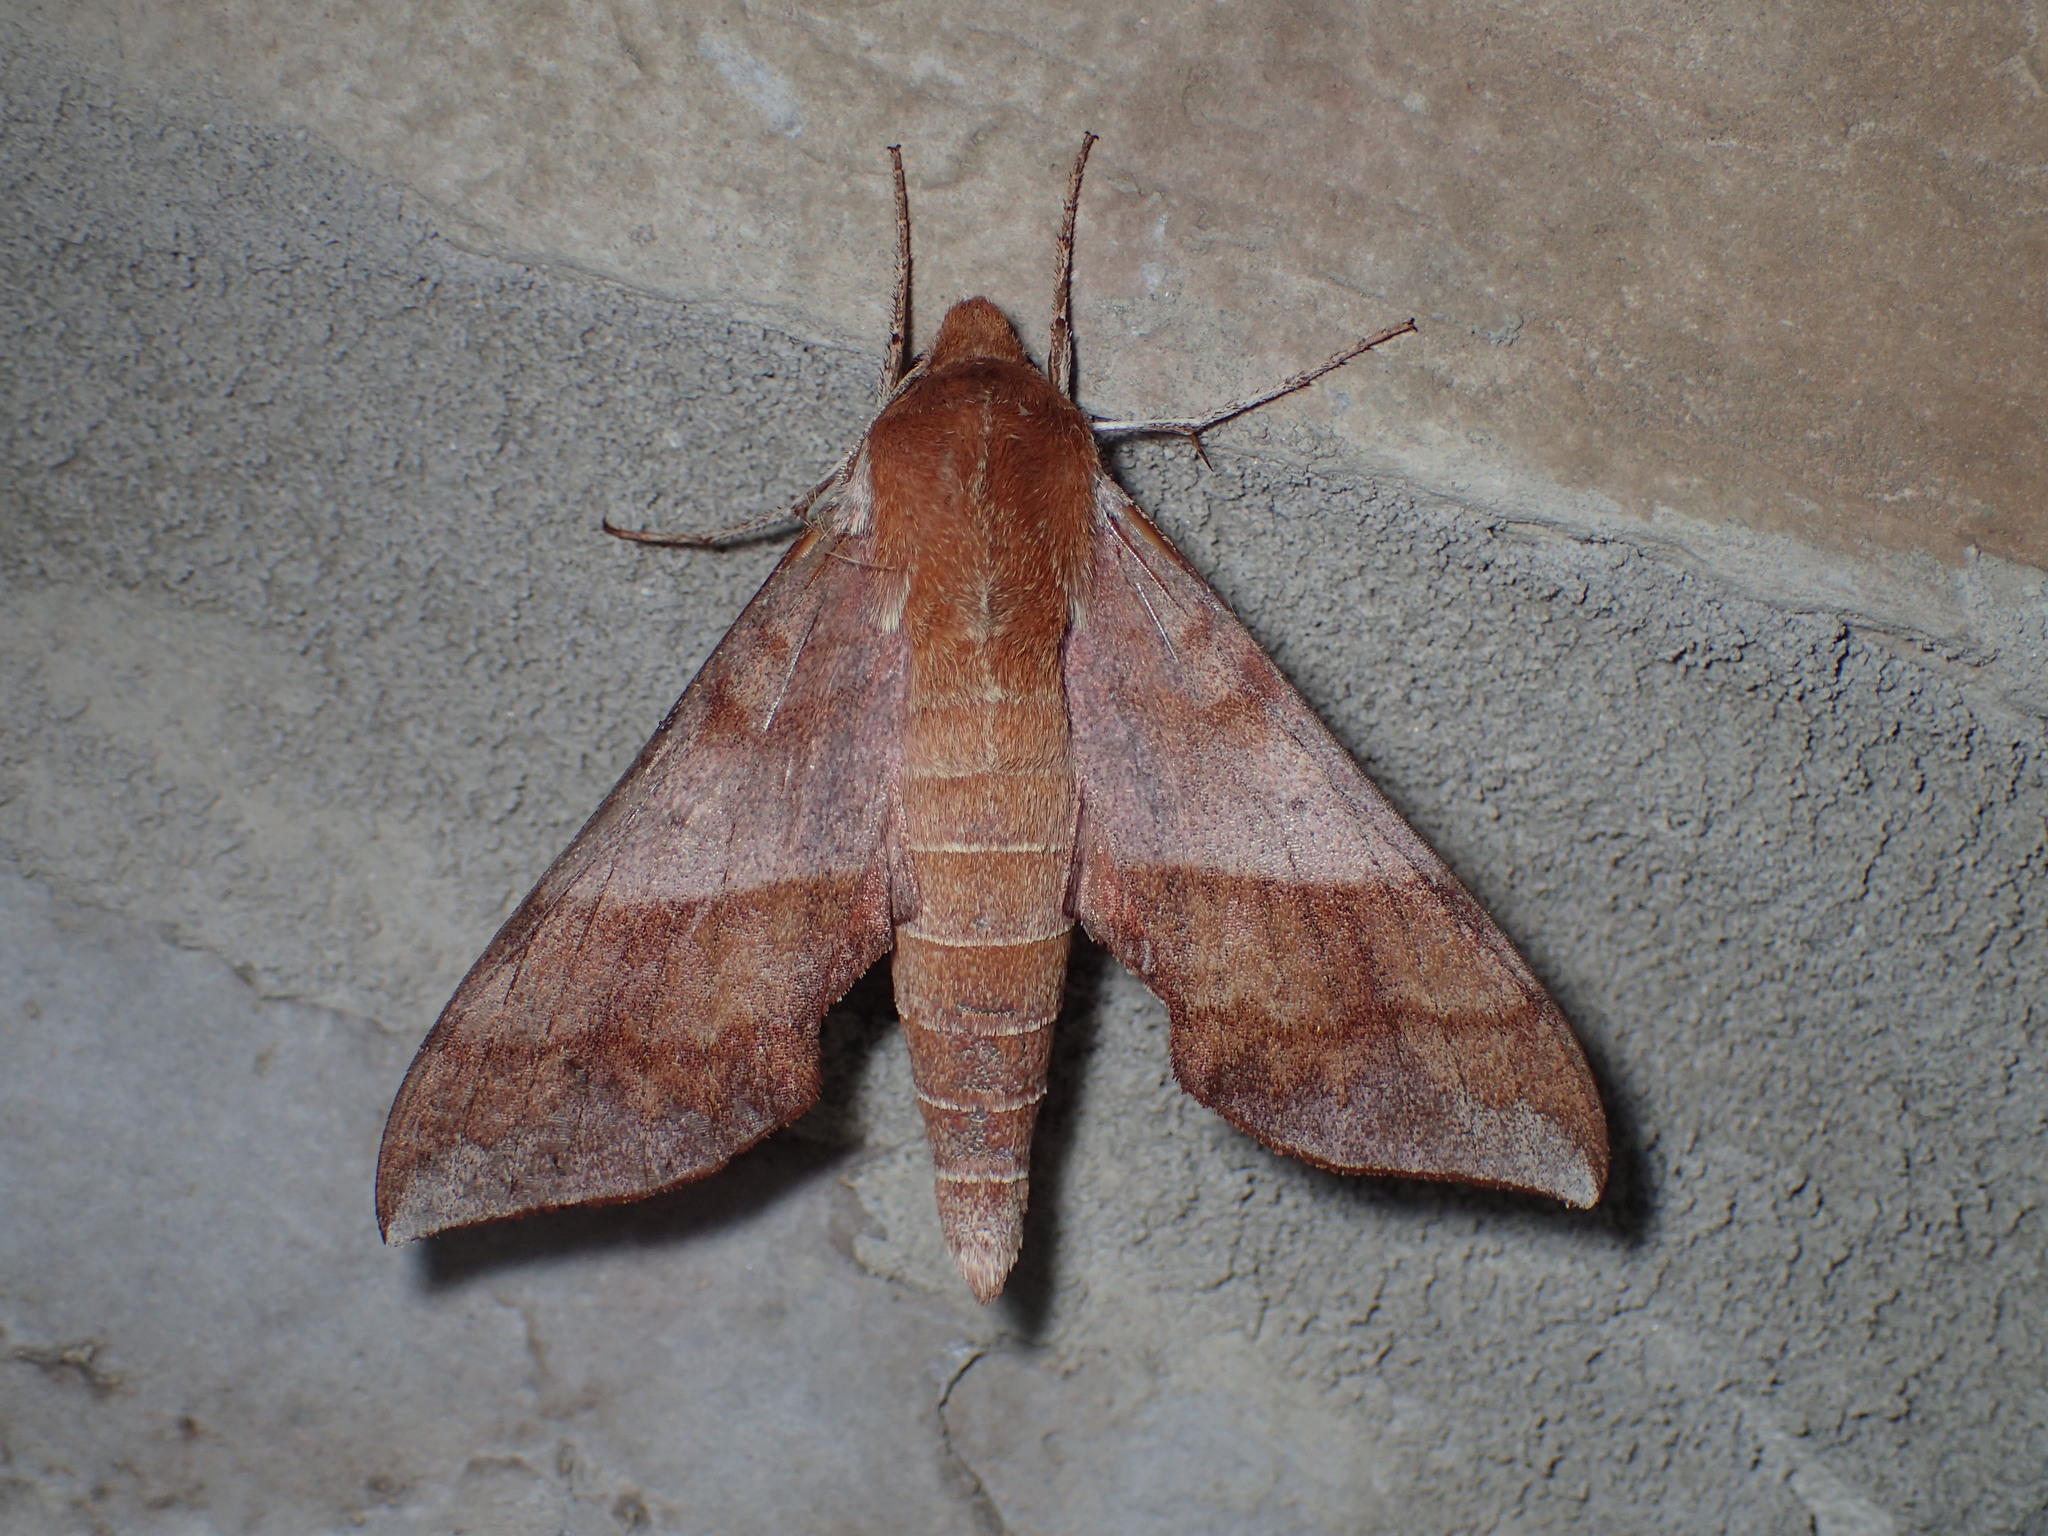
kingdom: Animalia
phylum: Arthropoda
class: Insecta
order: Lepidoptera
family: Sphingidae
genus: Darapsa
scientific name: Darapsa choerilus
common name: Azalea sphinx
